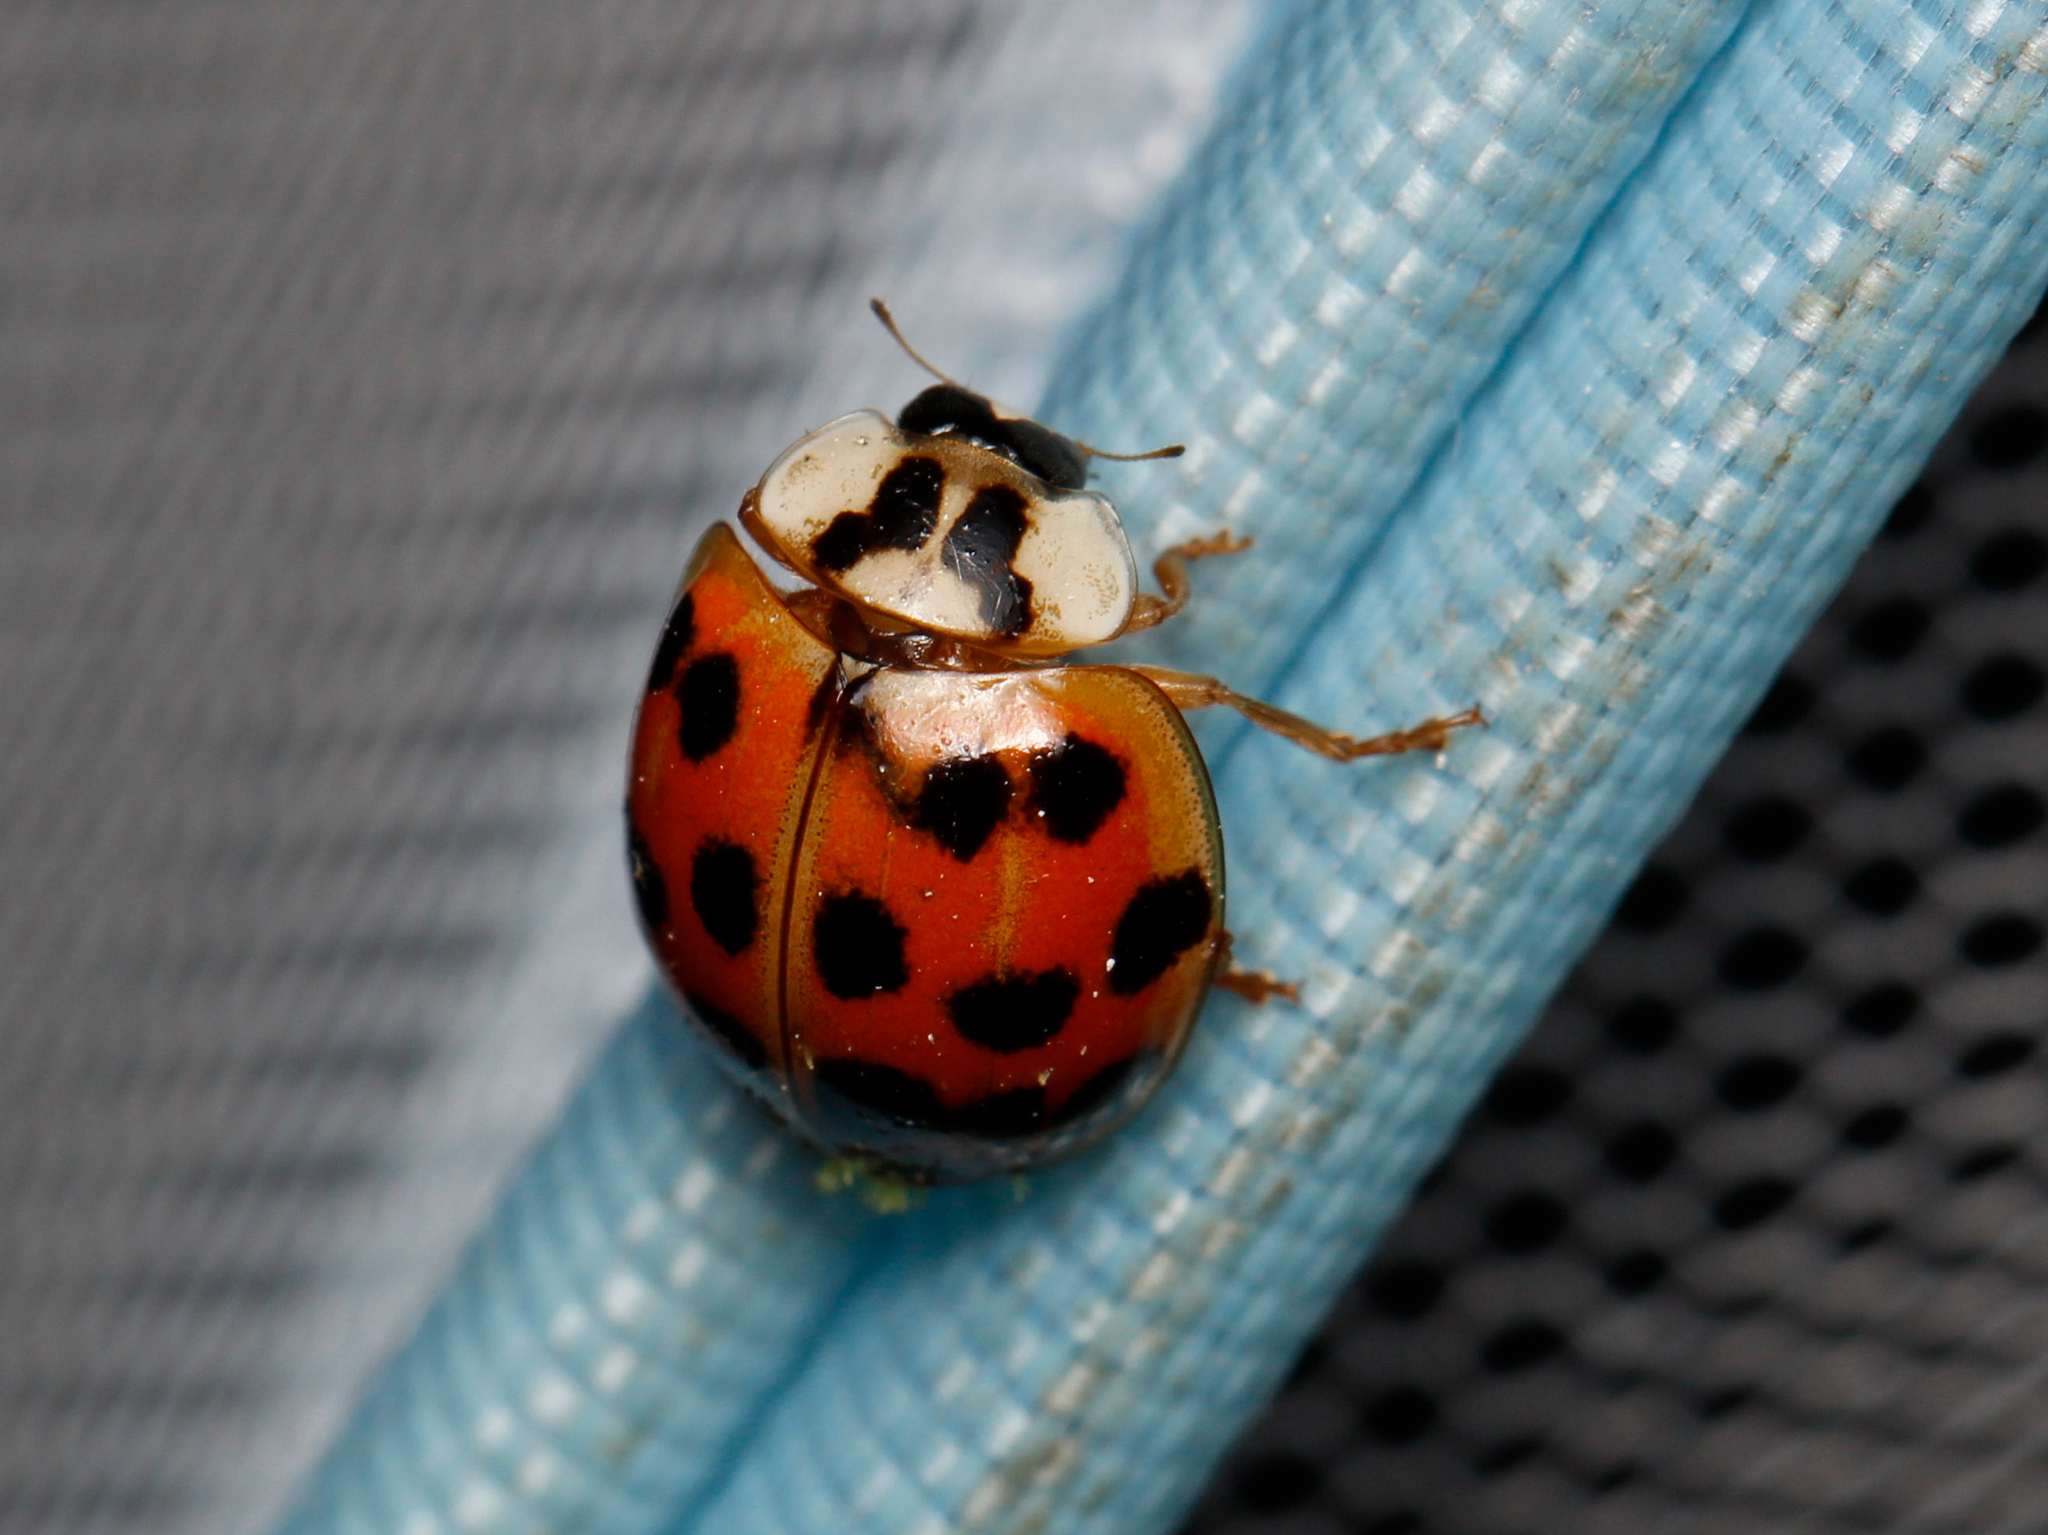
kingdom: Fungi
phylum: Ascomycota
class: Laboulbeniomycetes
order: Laboulbeniales
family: Laboulbeniaceae
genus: Hesperomyces
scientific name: Hesperomyces harmoniae
